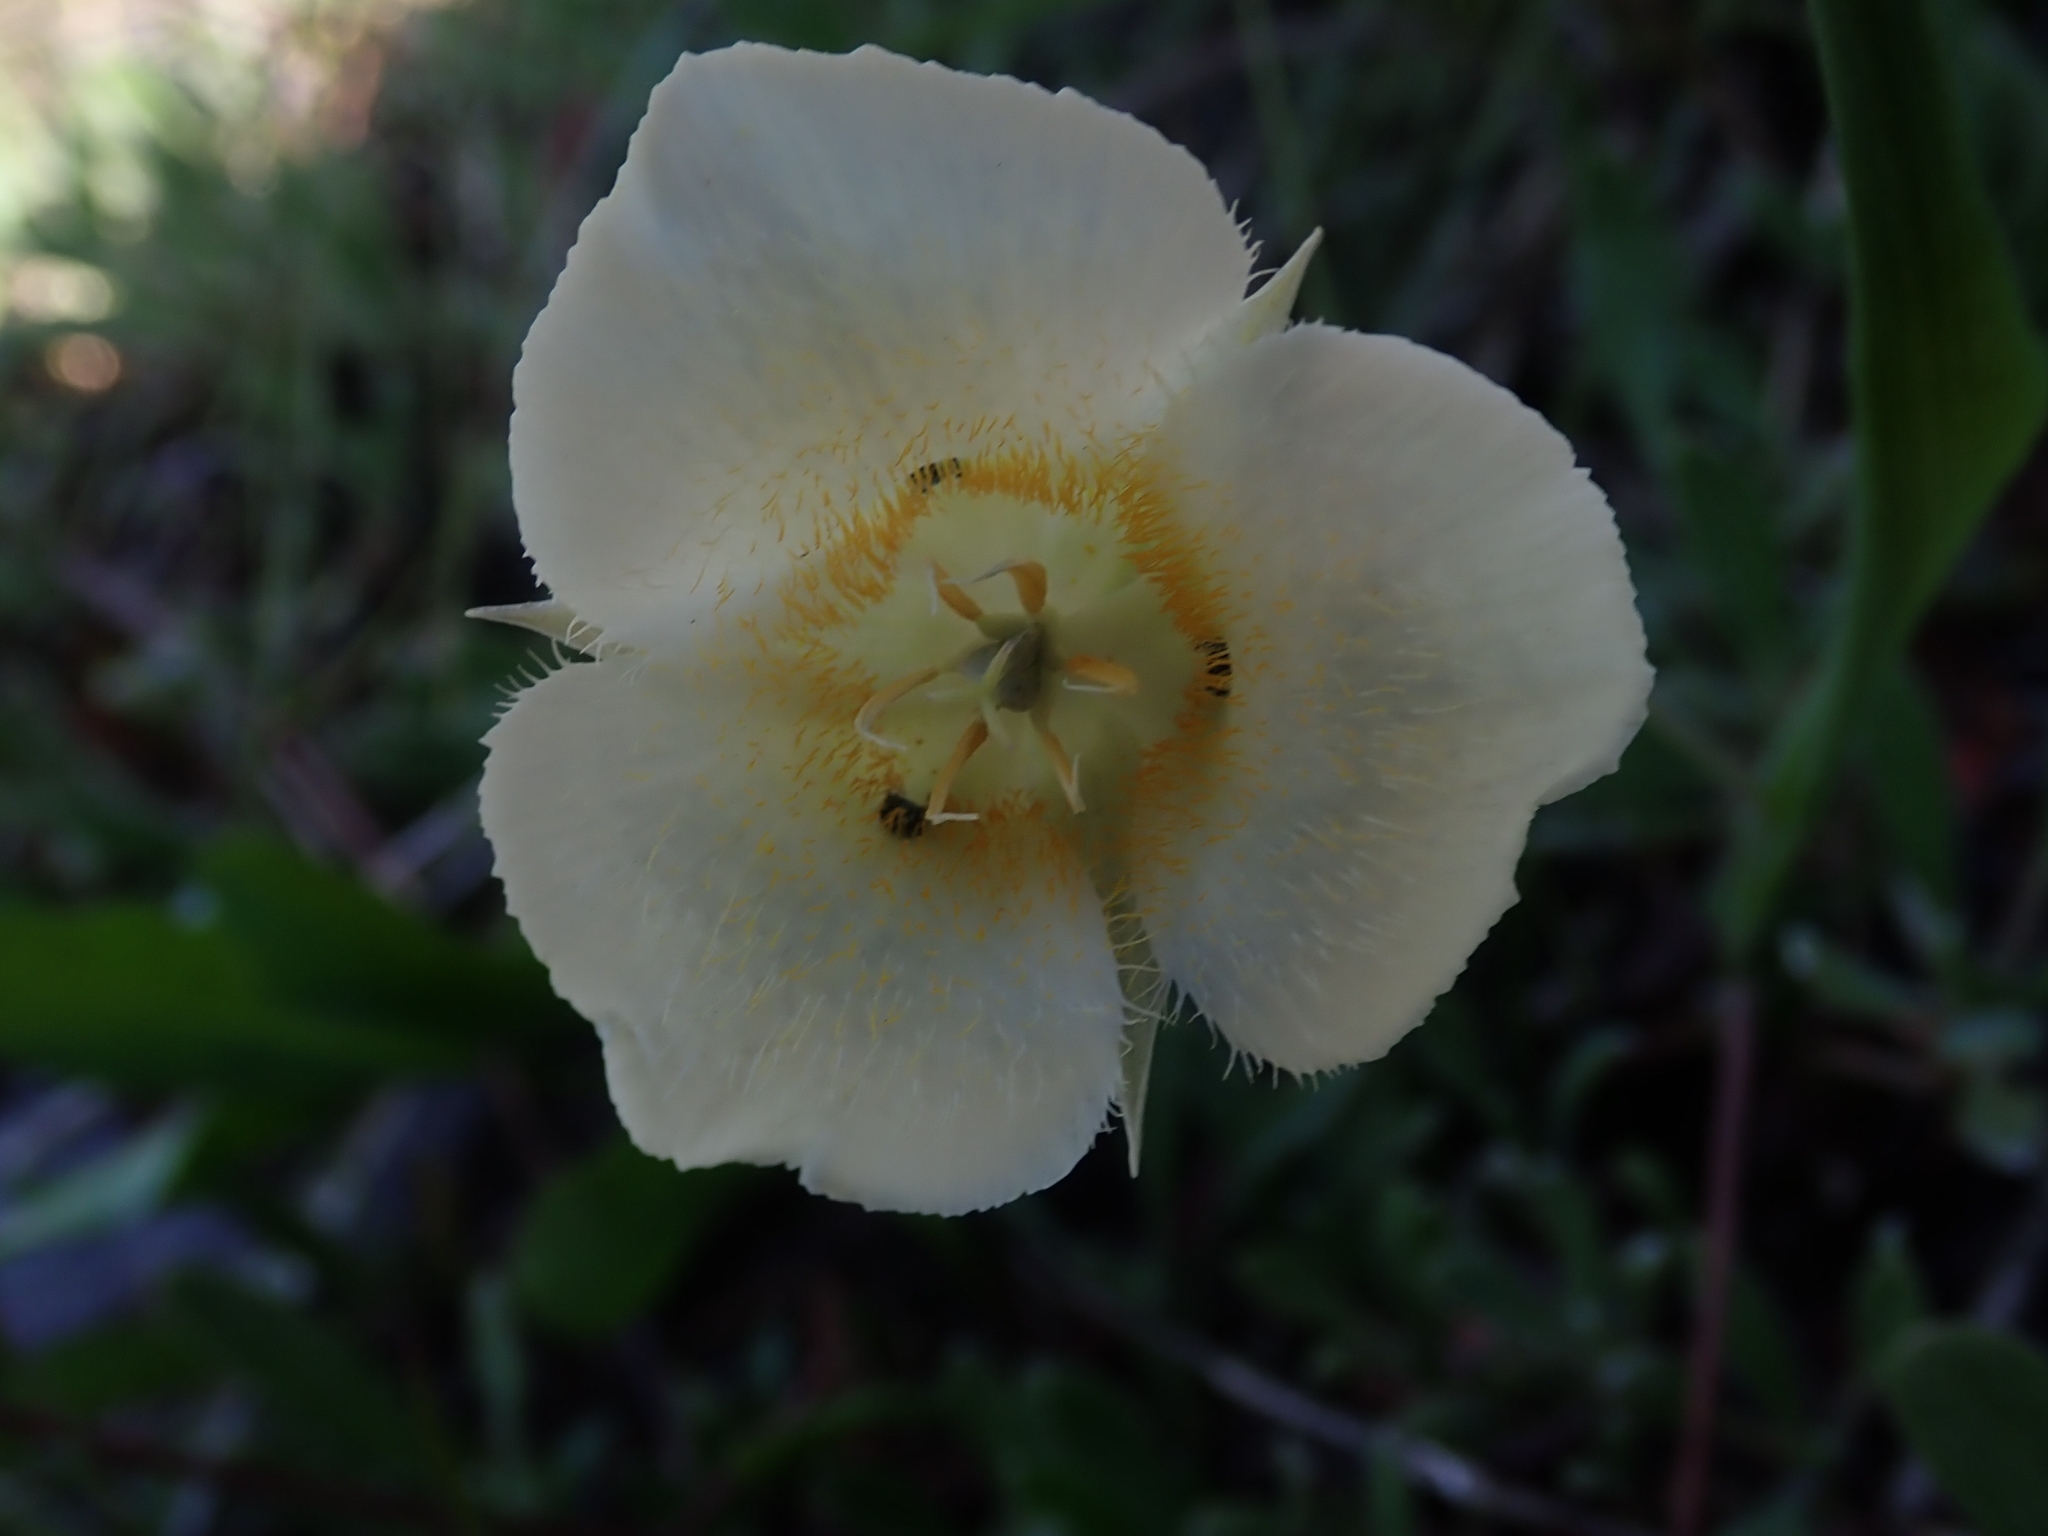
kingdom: Plantae
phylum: Tracheophyta
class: Liliopsida
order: Liliales
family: Liliaceae
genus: Calochortus
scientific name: Calochortus apiculatus
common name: Baker's mariposa lily
